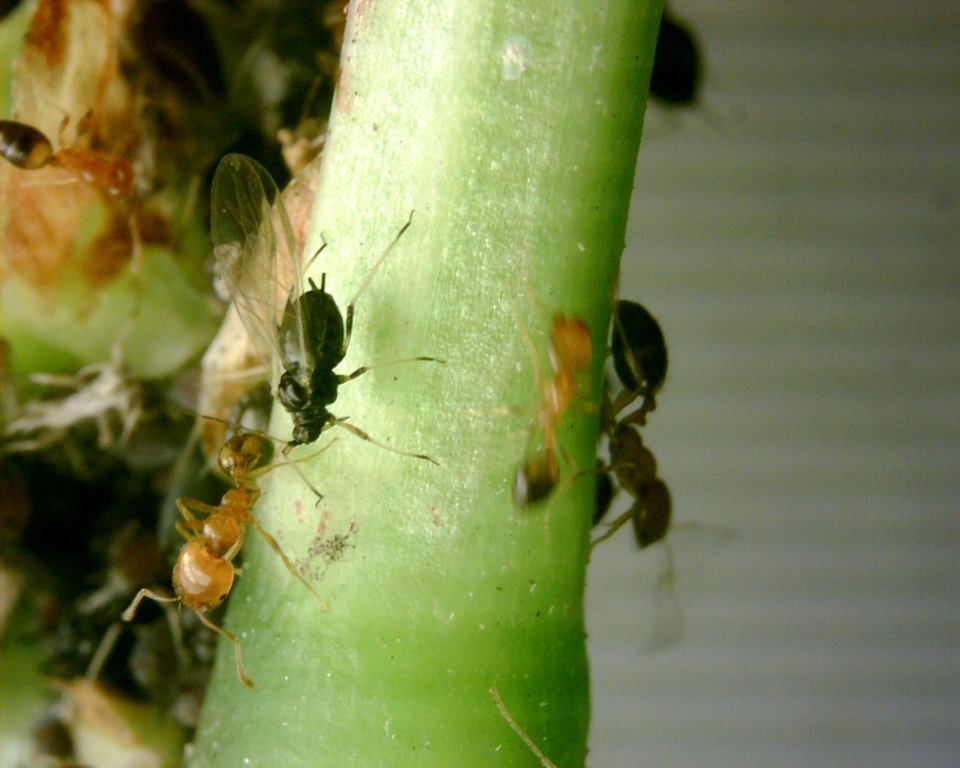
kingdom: Animalia
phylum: Arthropoda
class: Insecta
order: Hemiptera
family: Aphididae
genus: Aphis
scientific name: Aphis craccivora
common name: Cowpea aphid
